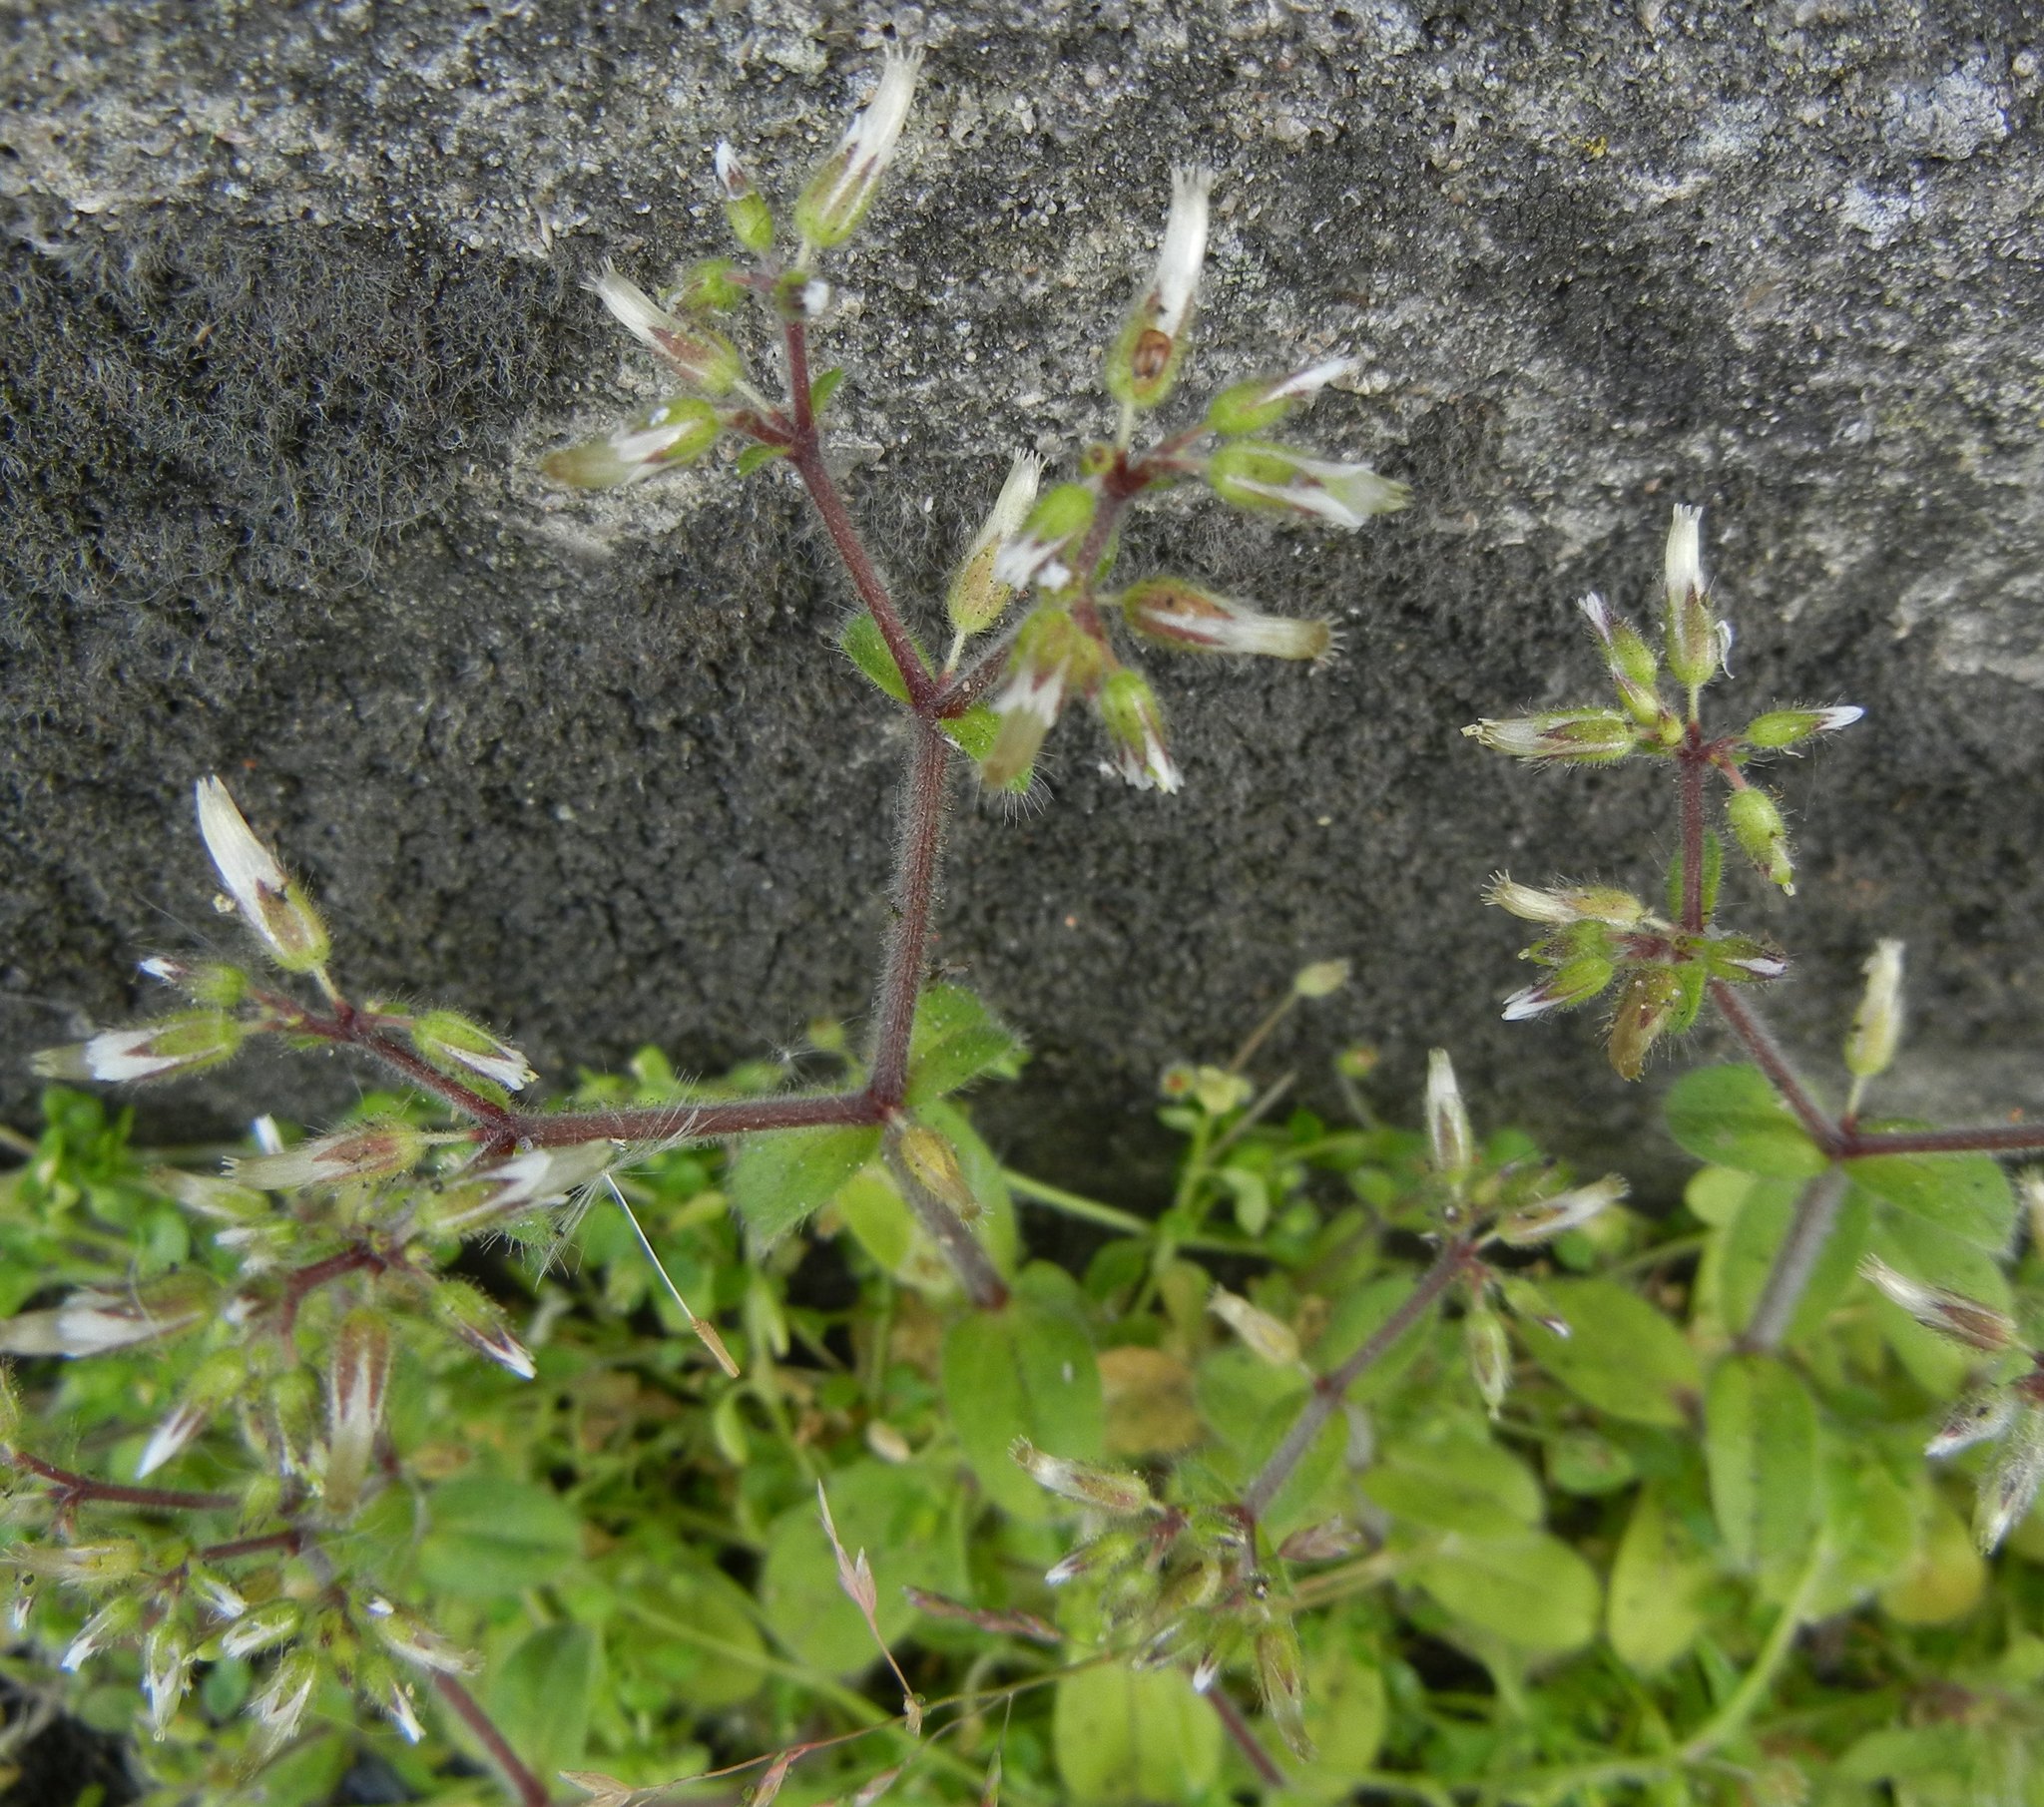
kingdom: Plantae
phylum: Tracheophyta
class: Magnoliopsida
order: Caryophyllales
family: Caryophyllaceae
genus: Cerastium
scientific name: Cerastium glomeratum
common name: Sticky chickweed
